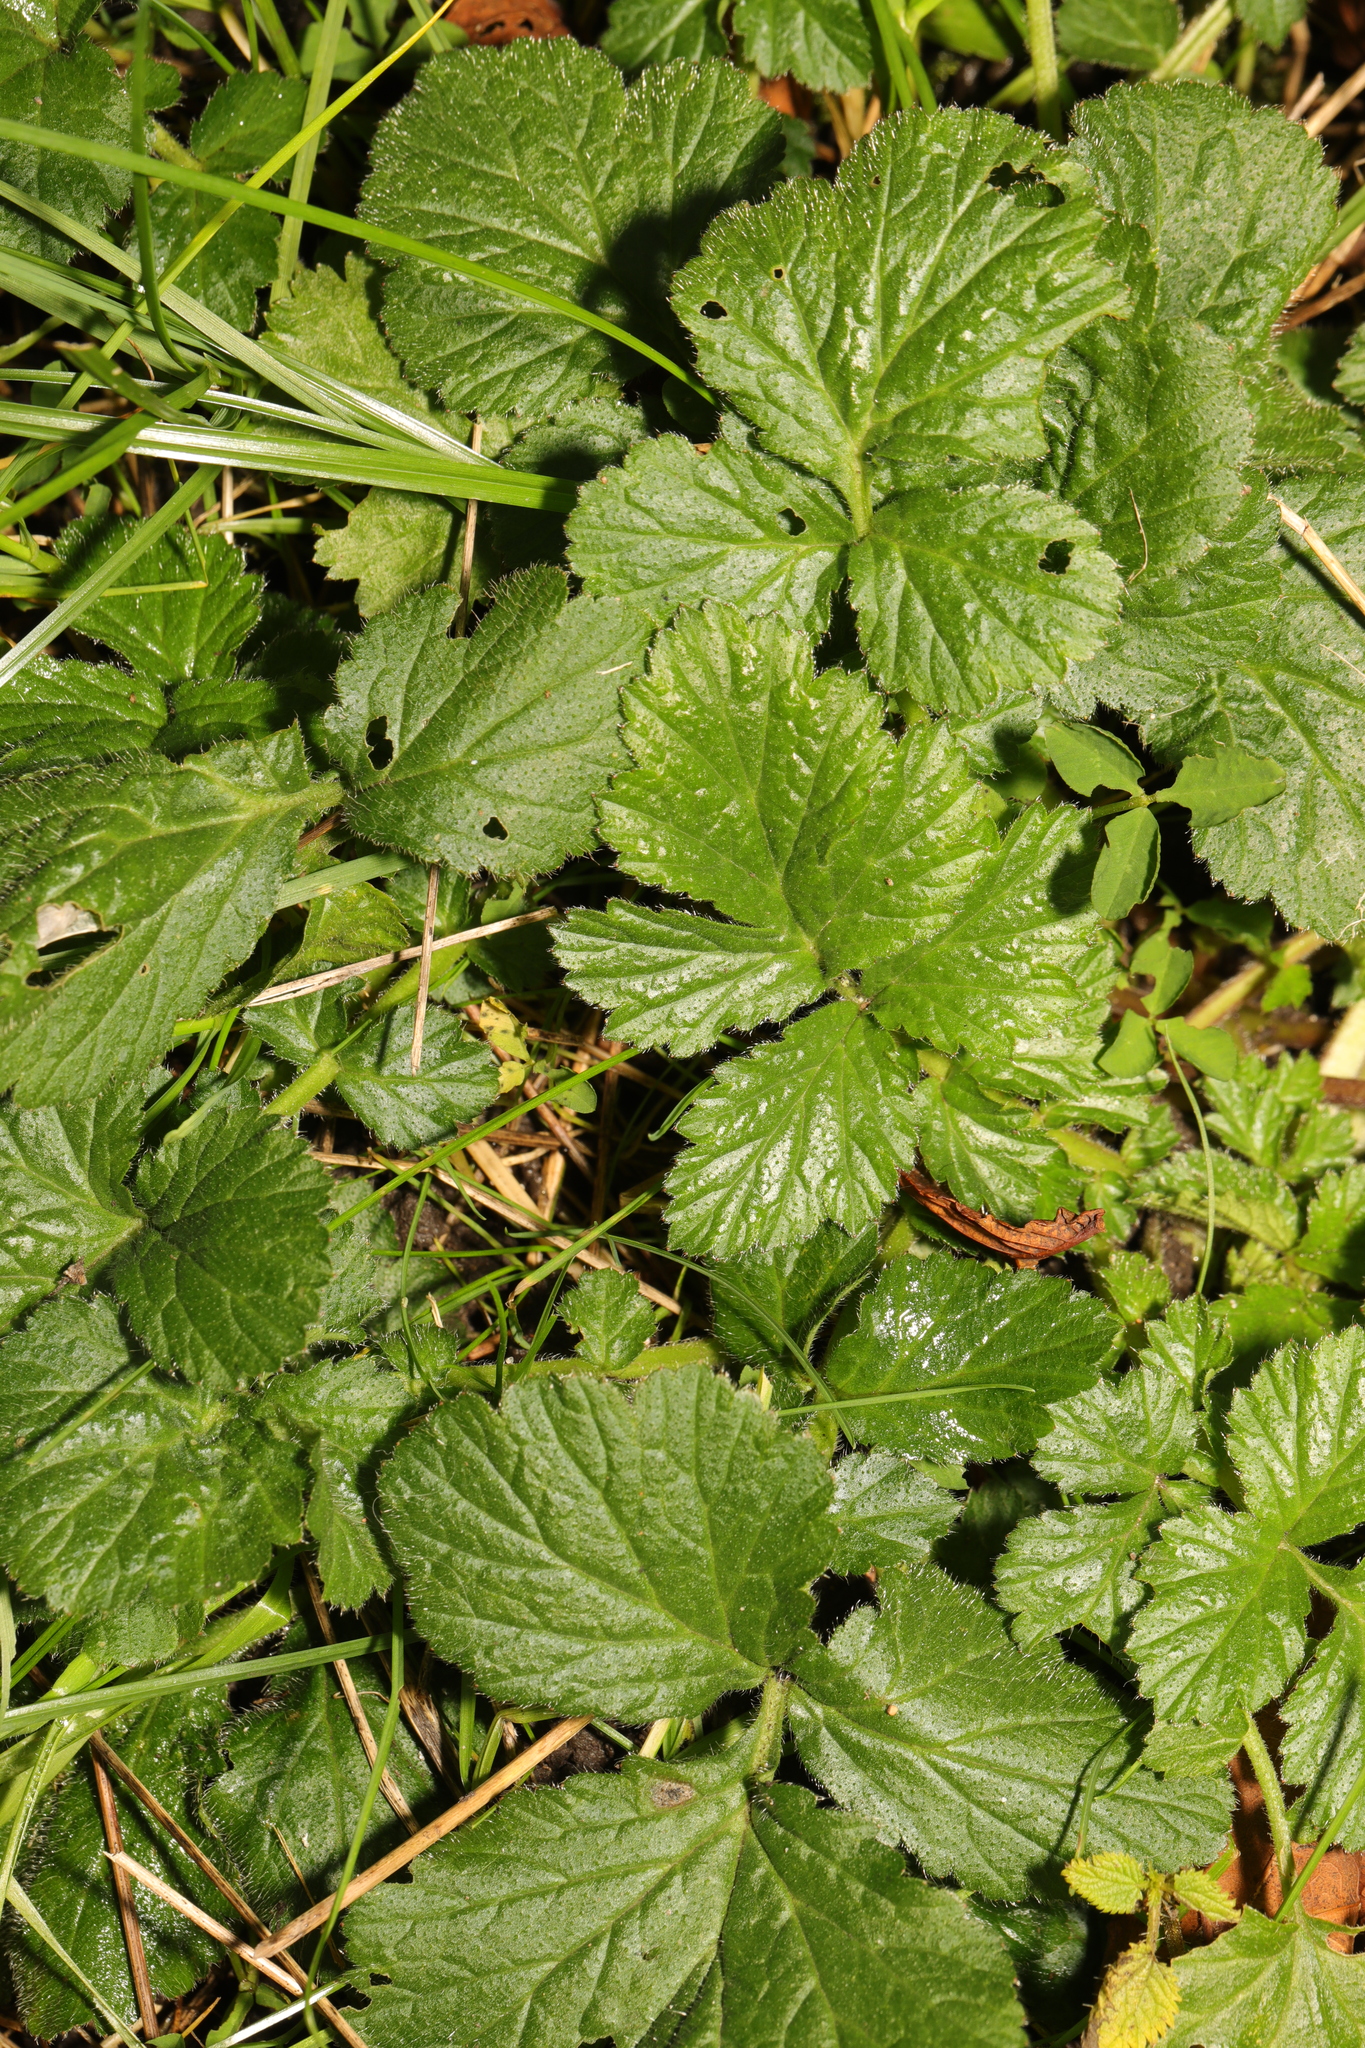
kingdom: Plantae
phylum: Tracheophyta
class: Magnoliopsida
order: Rosales
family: Rosaceae
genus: Geum
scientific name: Geum urbanum
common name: Wood avens
